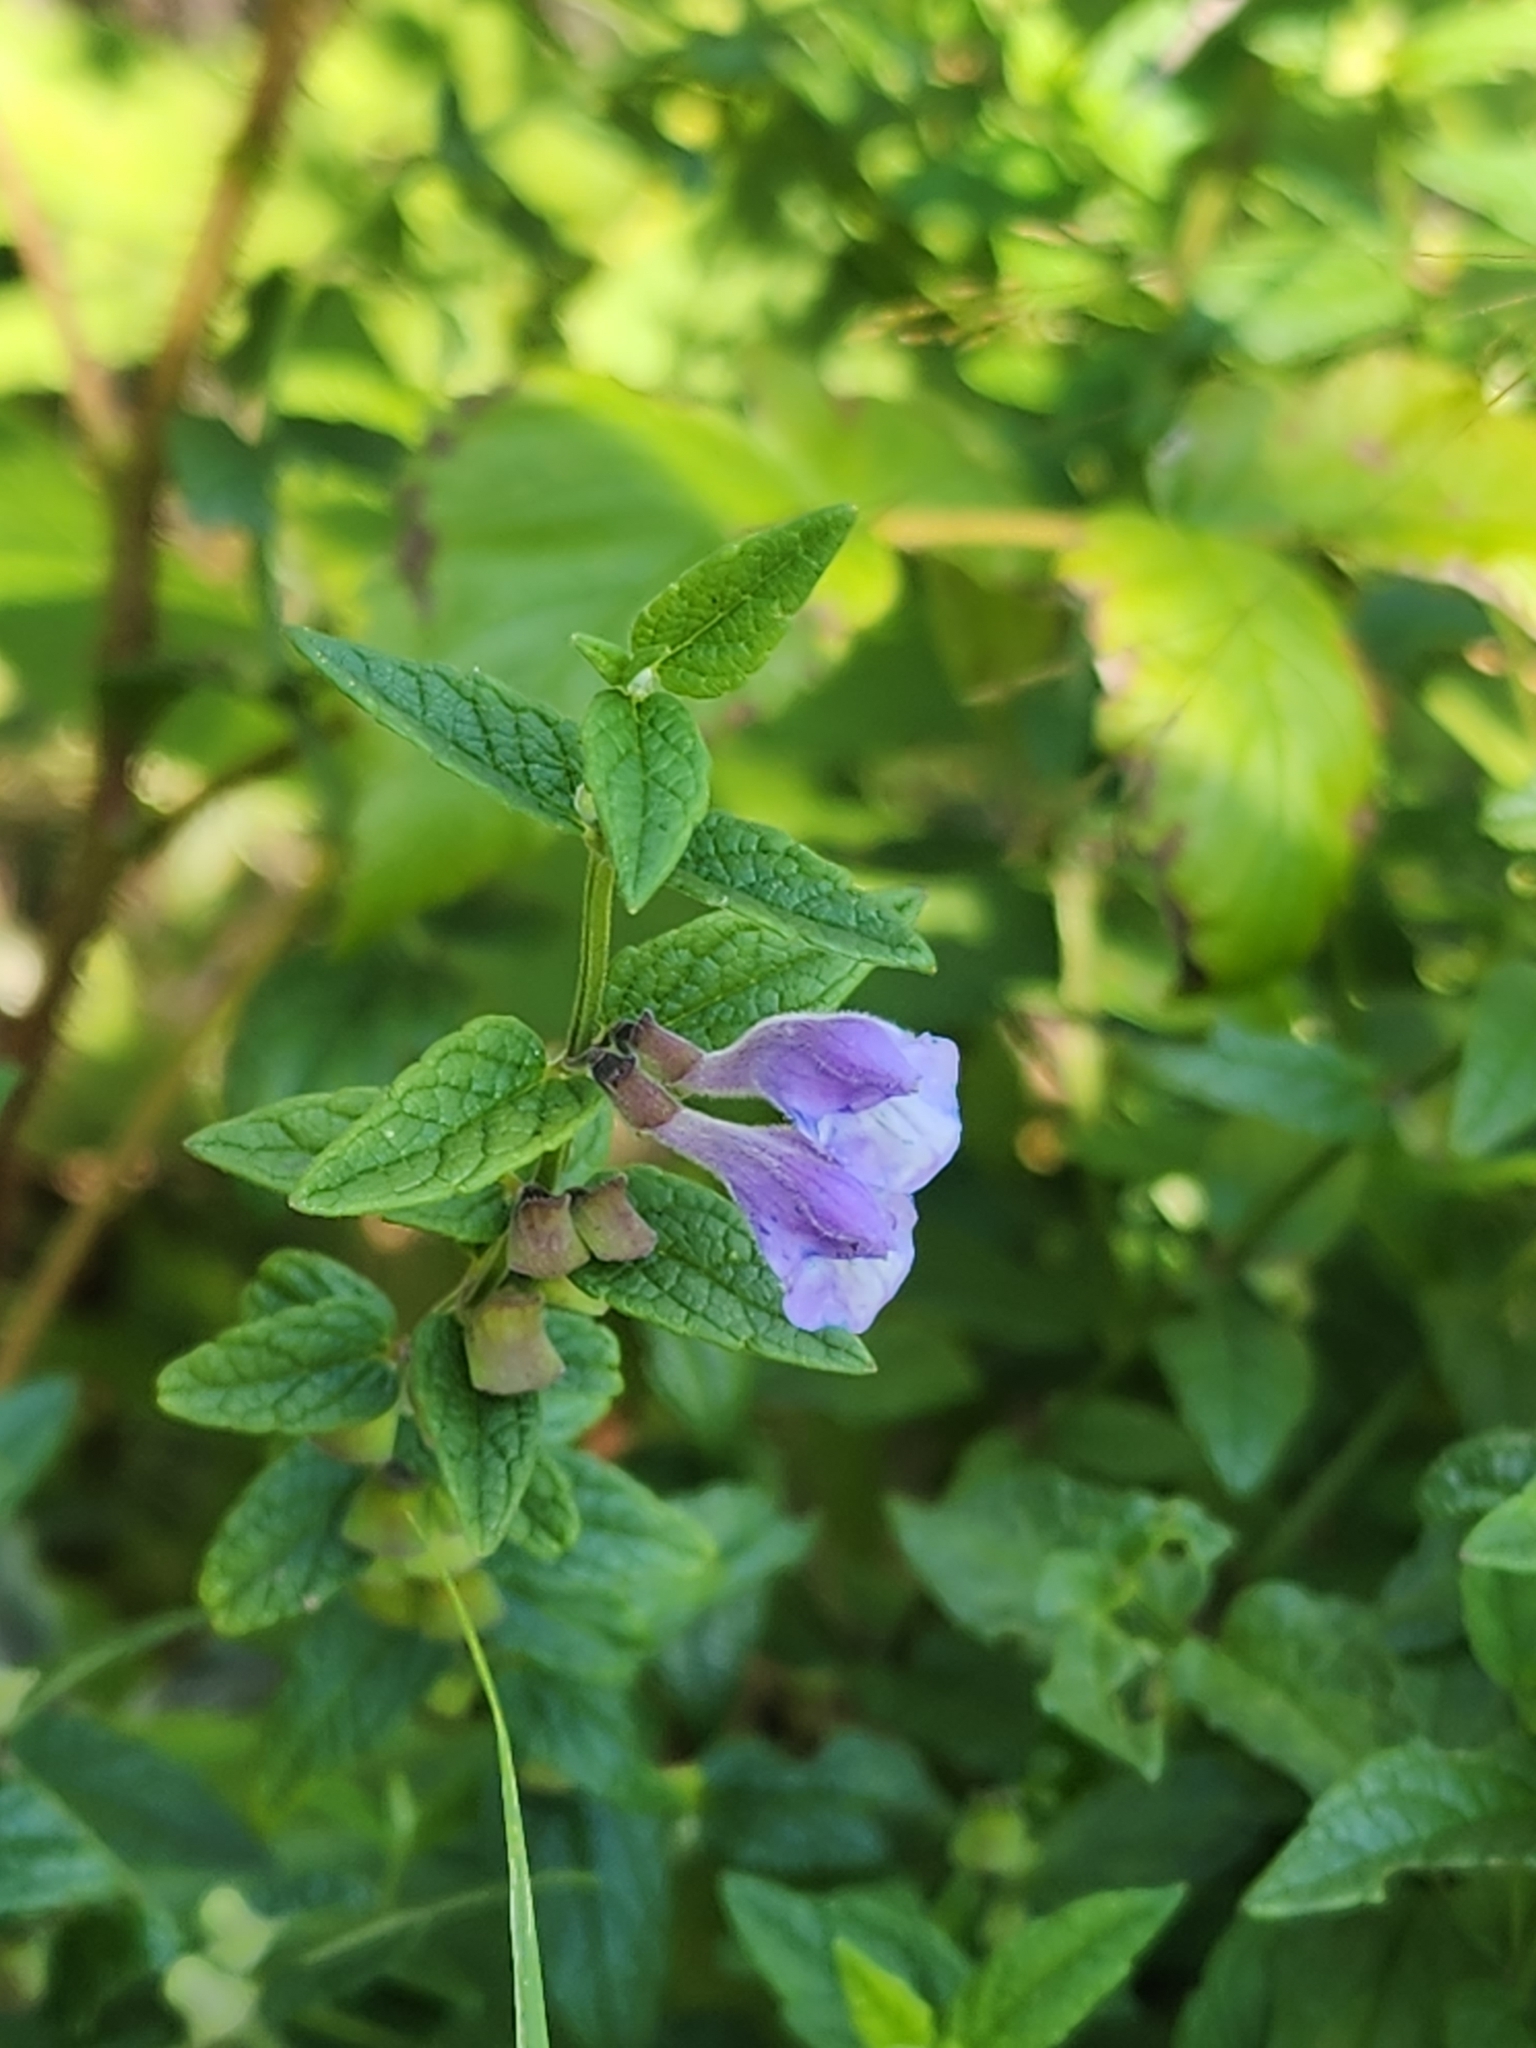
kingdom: Plantae
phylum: Tracheophyta
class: Magnoliopsida
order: Lamiales
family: Lamiaceae
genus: Scutellaria
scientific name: Scutellaria galericulata
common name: Skullcap
